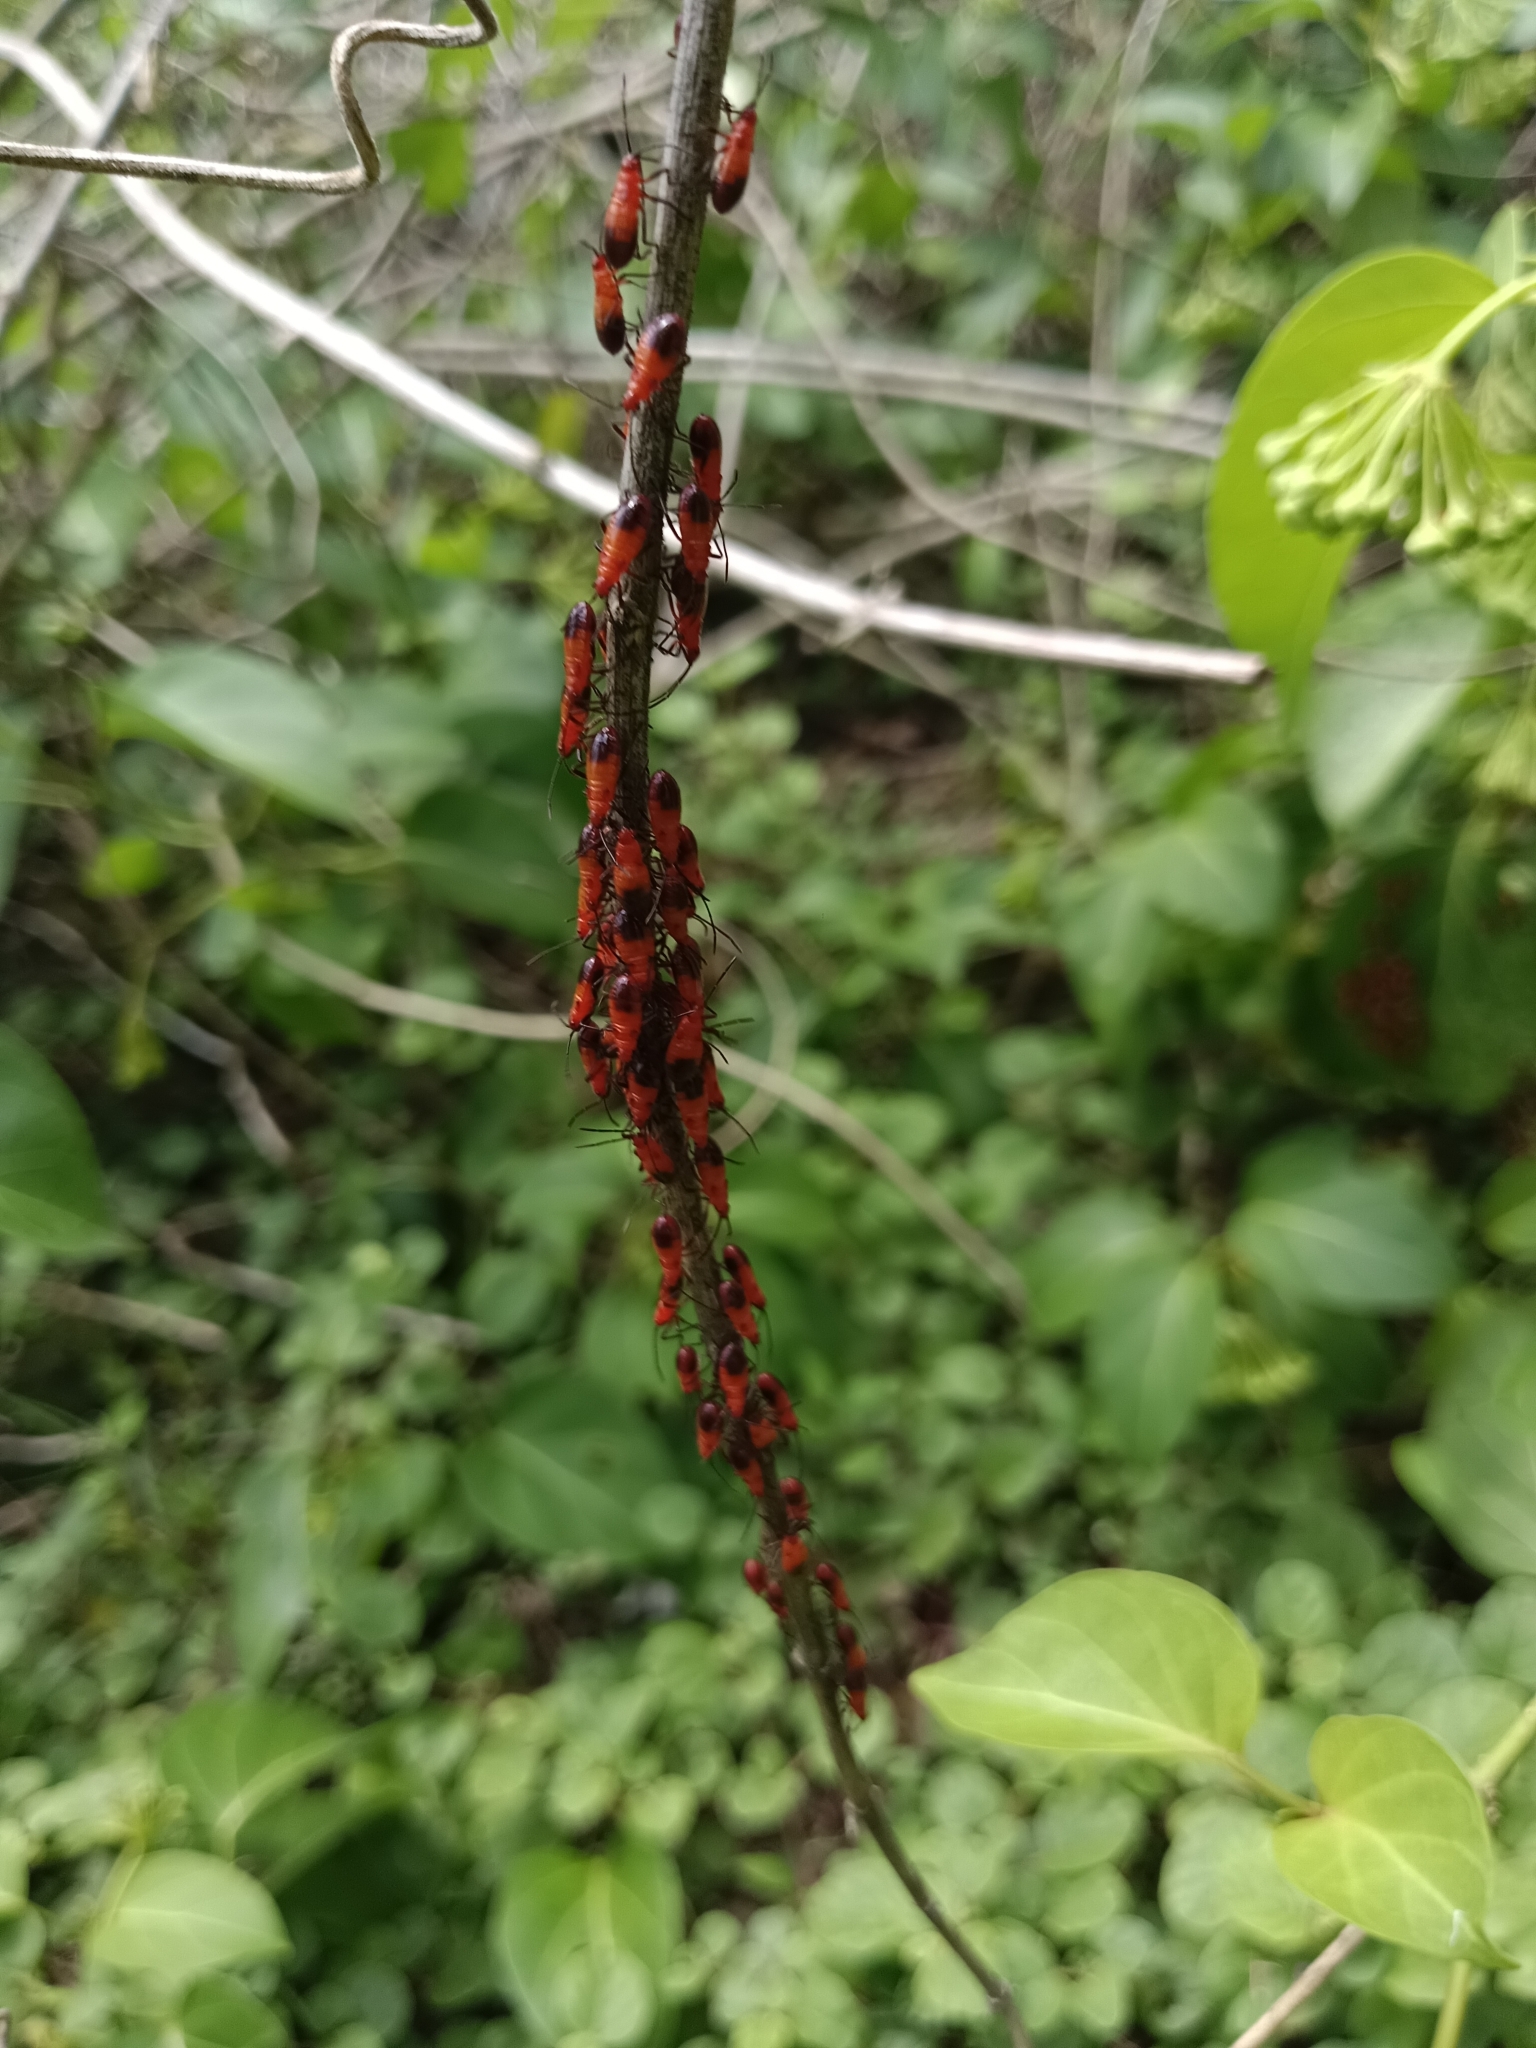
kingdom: Animalia
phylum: Arthropoda
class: Insecta
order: Hemiptera
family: Lygaeidae
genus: Oncopeltus
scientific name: Oncopeltus nigriceps
